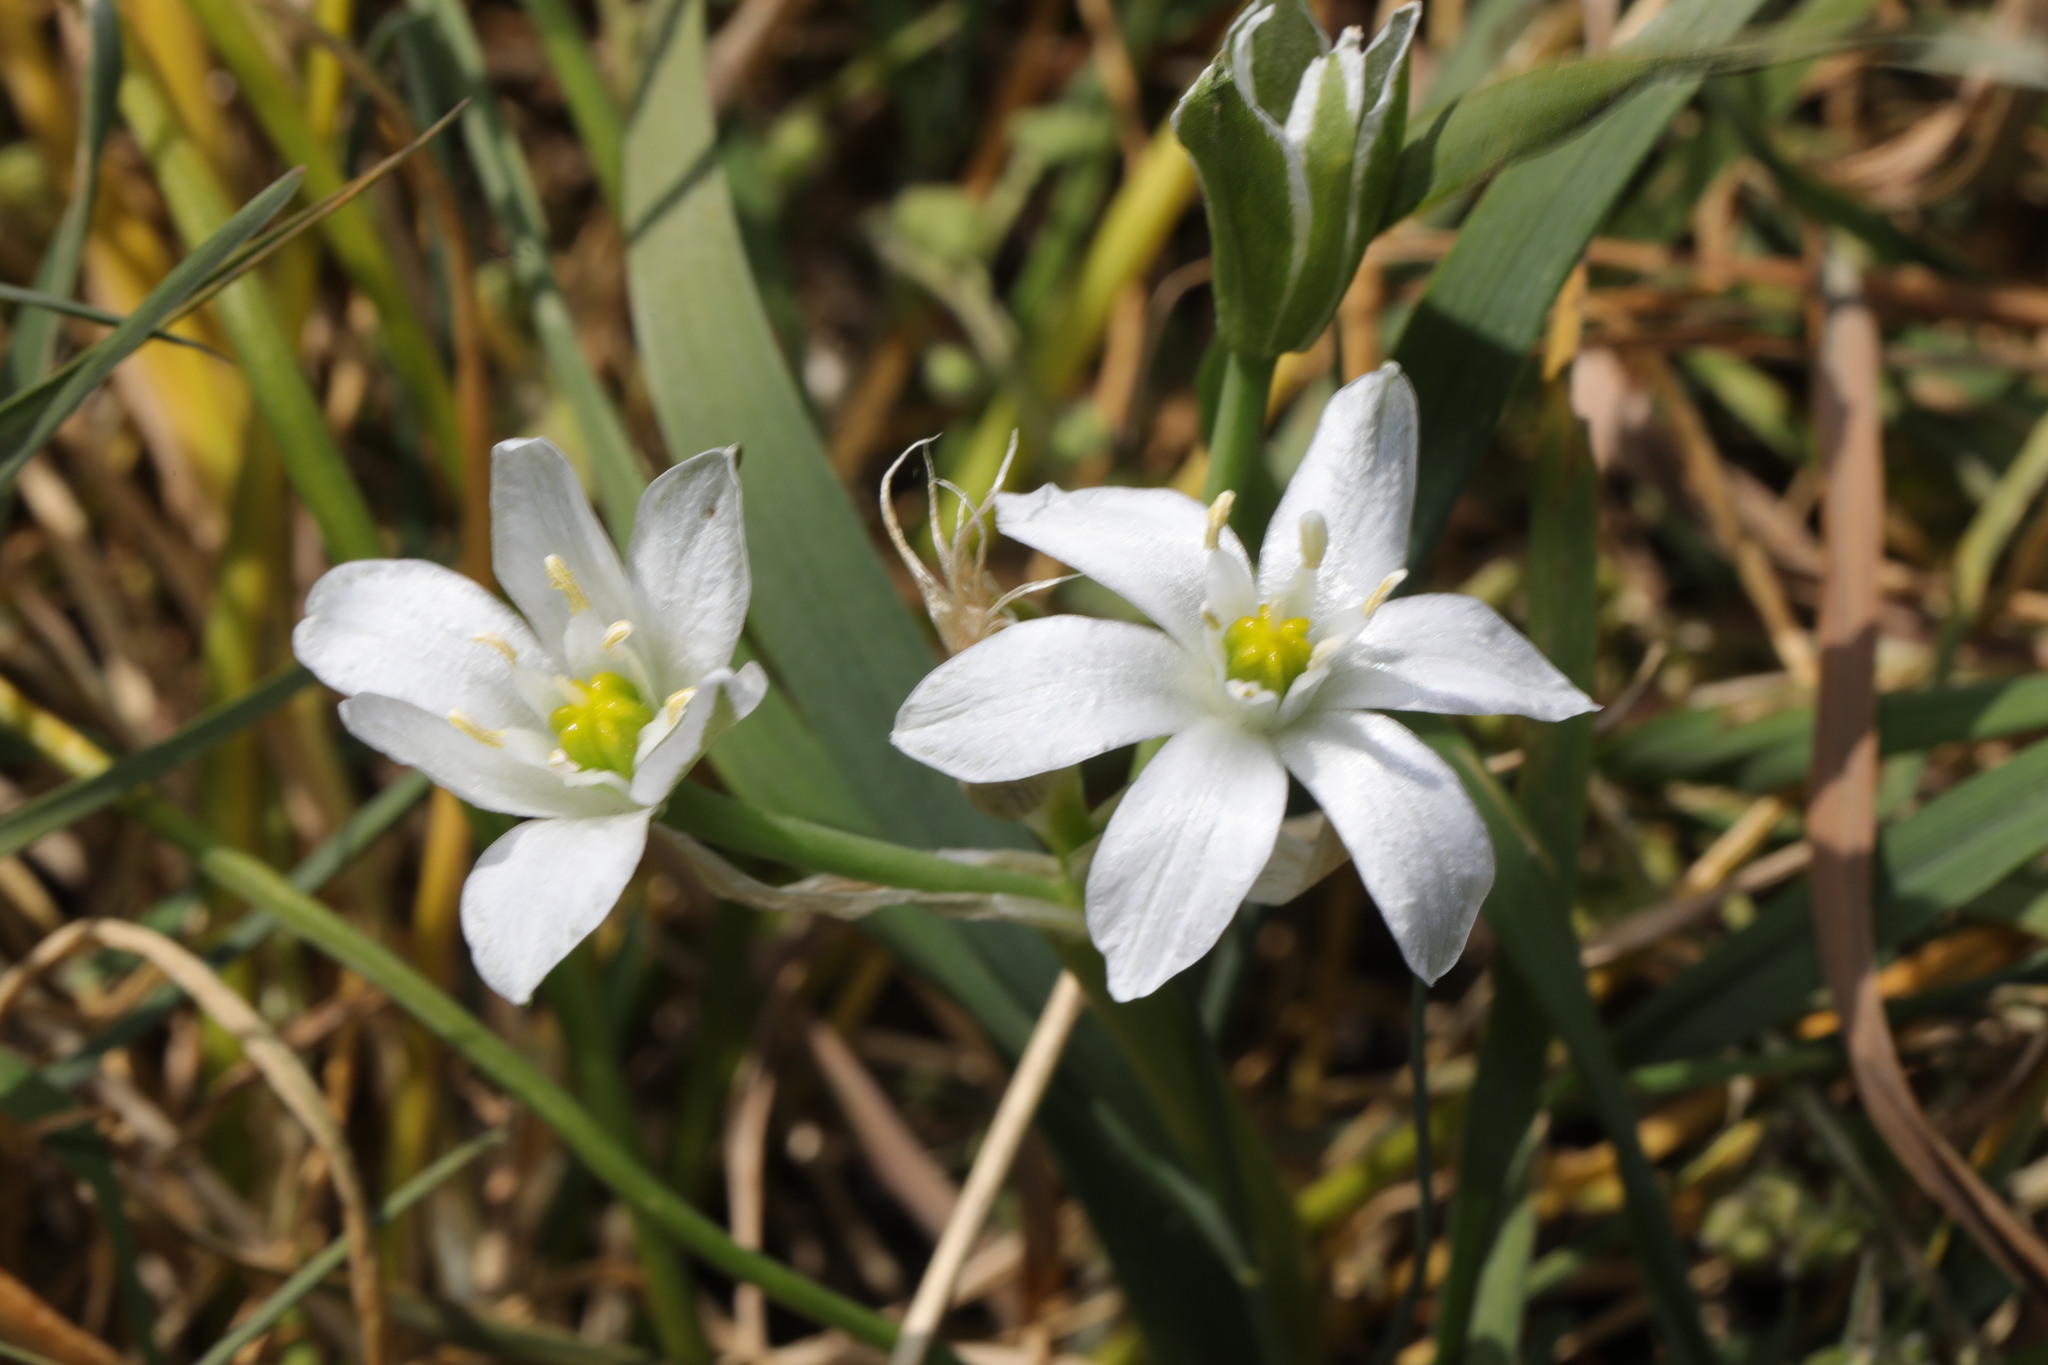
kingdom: Plantae
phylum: Tracheophyta
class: Liliopsida
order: Asparagales
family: Asparagaceae
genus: Ornithogalum
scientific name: Ornithogalum umbellatum
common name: Garden star-of-bethlehem
